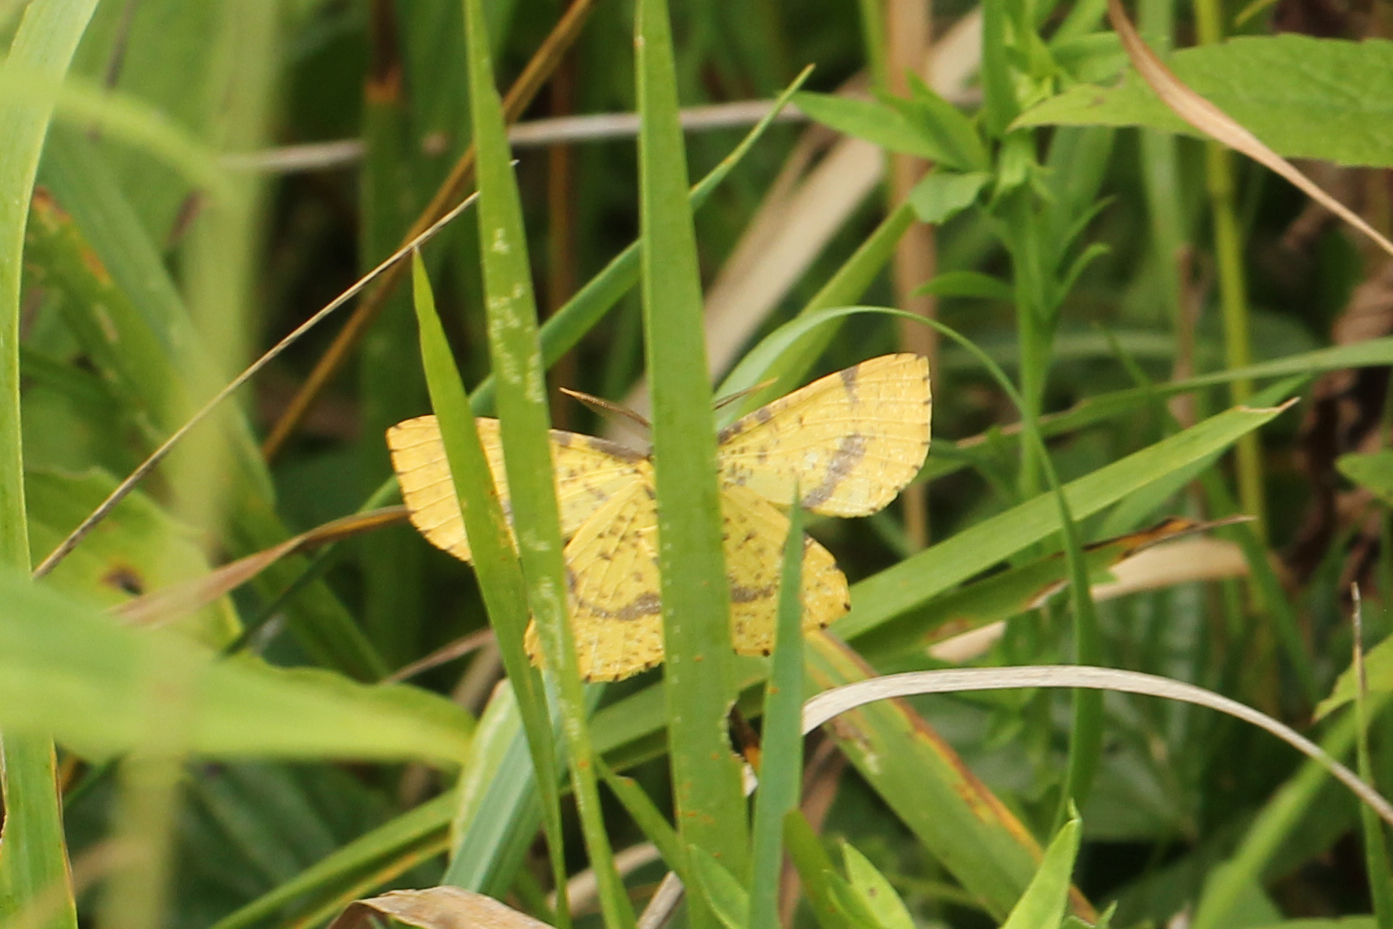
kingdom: Animalia
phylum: Arthropoda
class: Insecta
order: Lepidoptera
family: Geometridae
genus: Xanthotype
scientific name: Xanthotype
